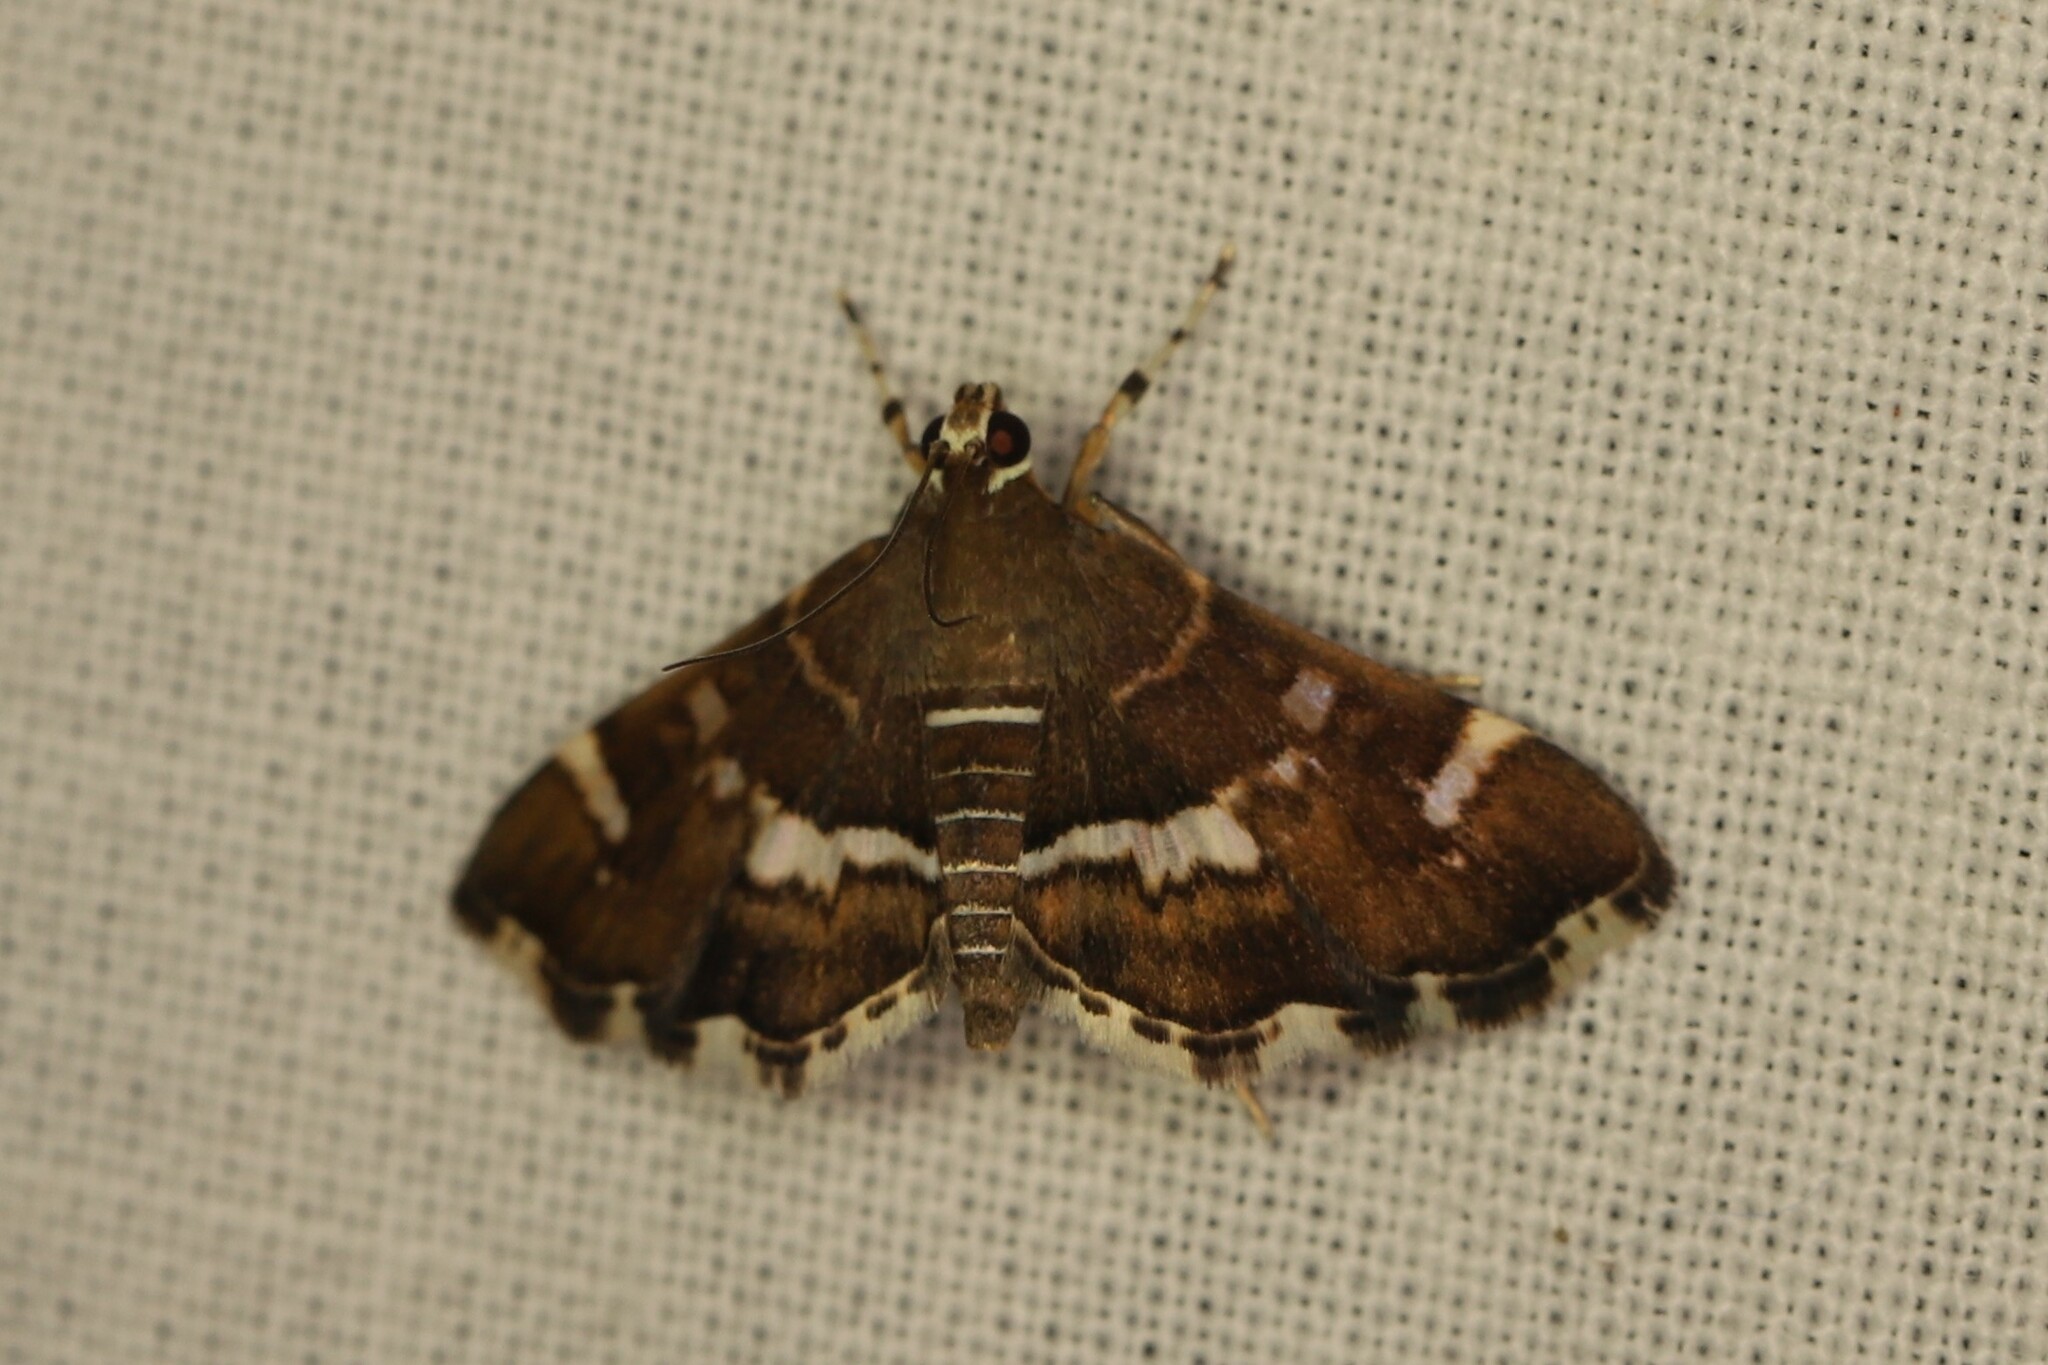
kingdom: Animalia
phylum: Arthropoda
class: Insecta
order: Lepidoptera
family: Crambidae
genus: Hymenia
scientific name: Hymenia perspectalis
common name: Spotted beet webworm
